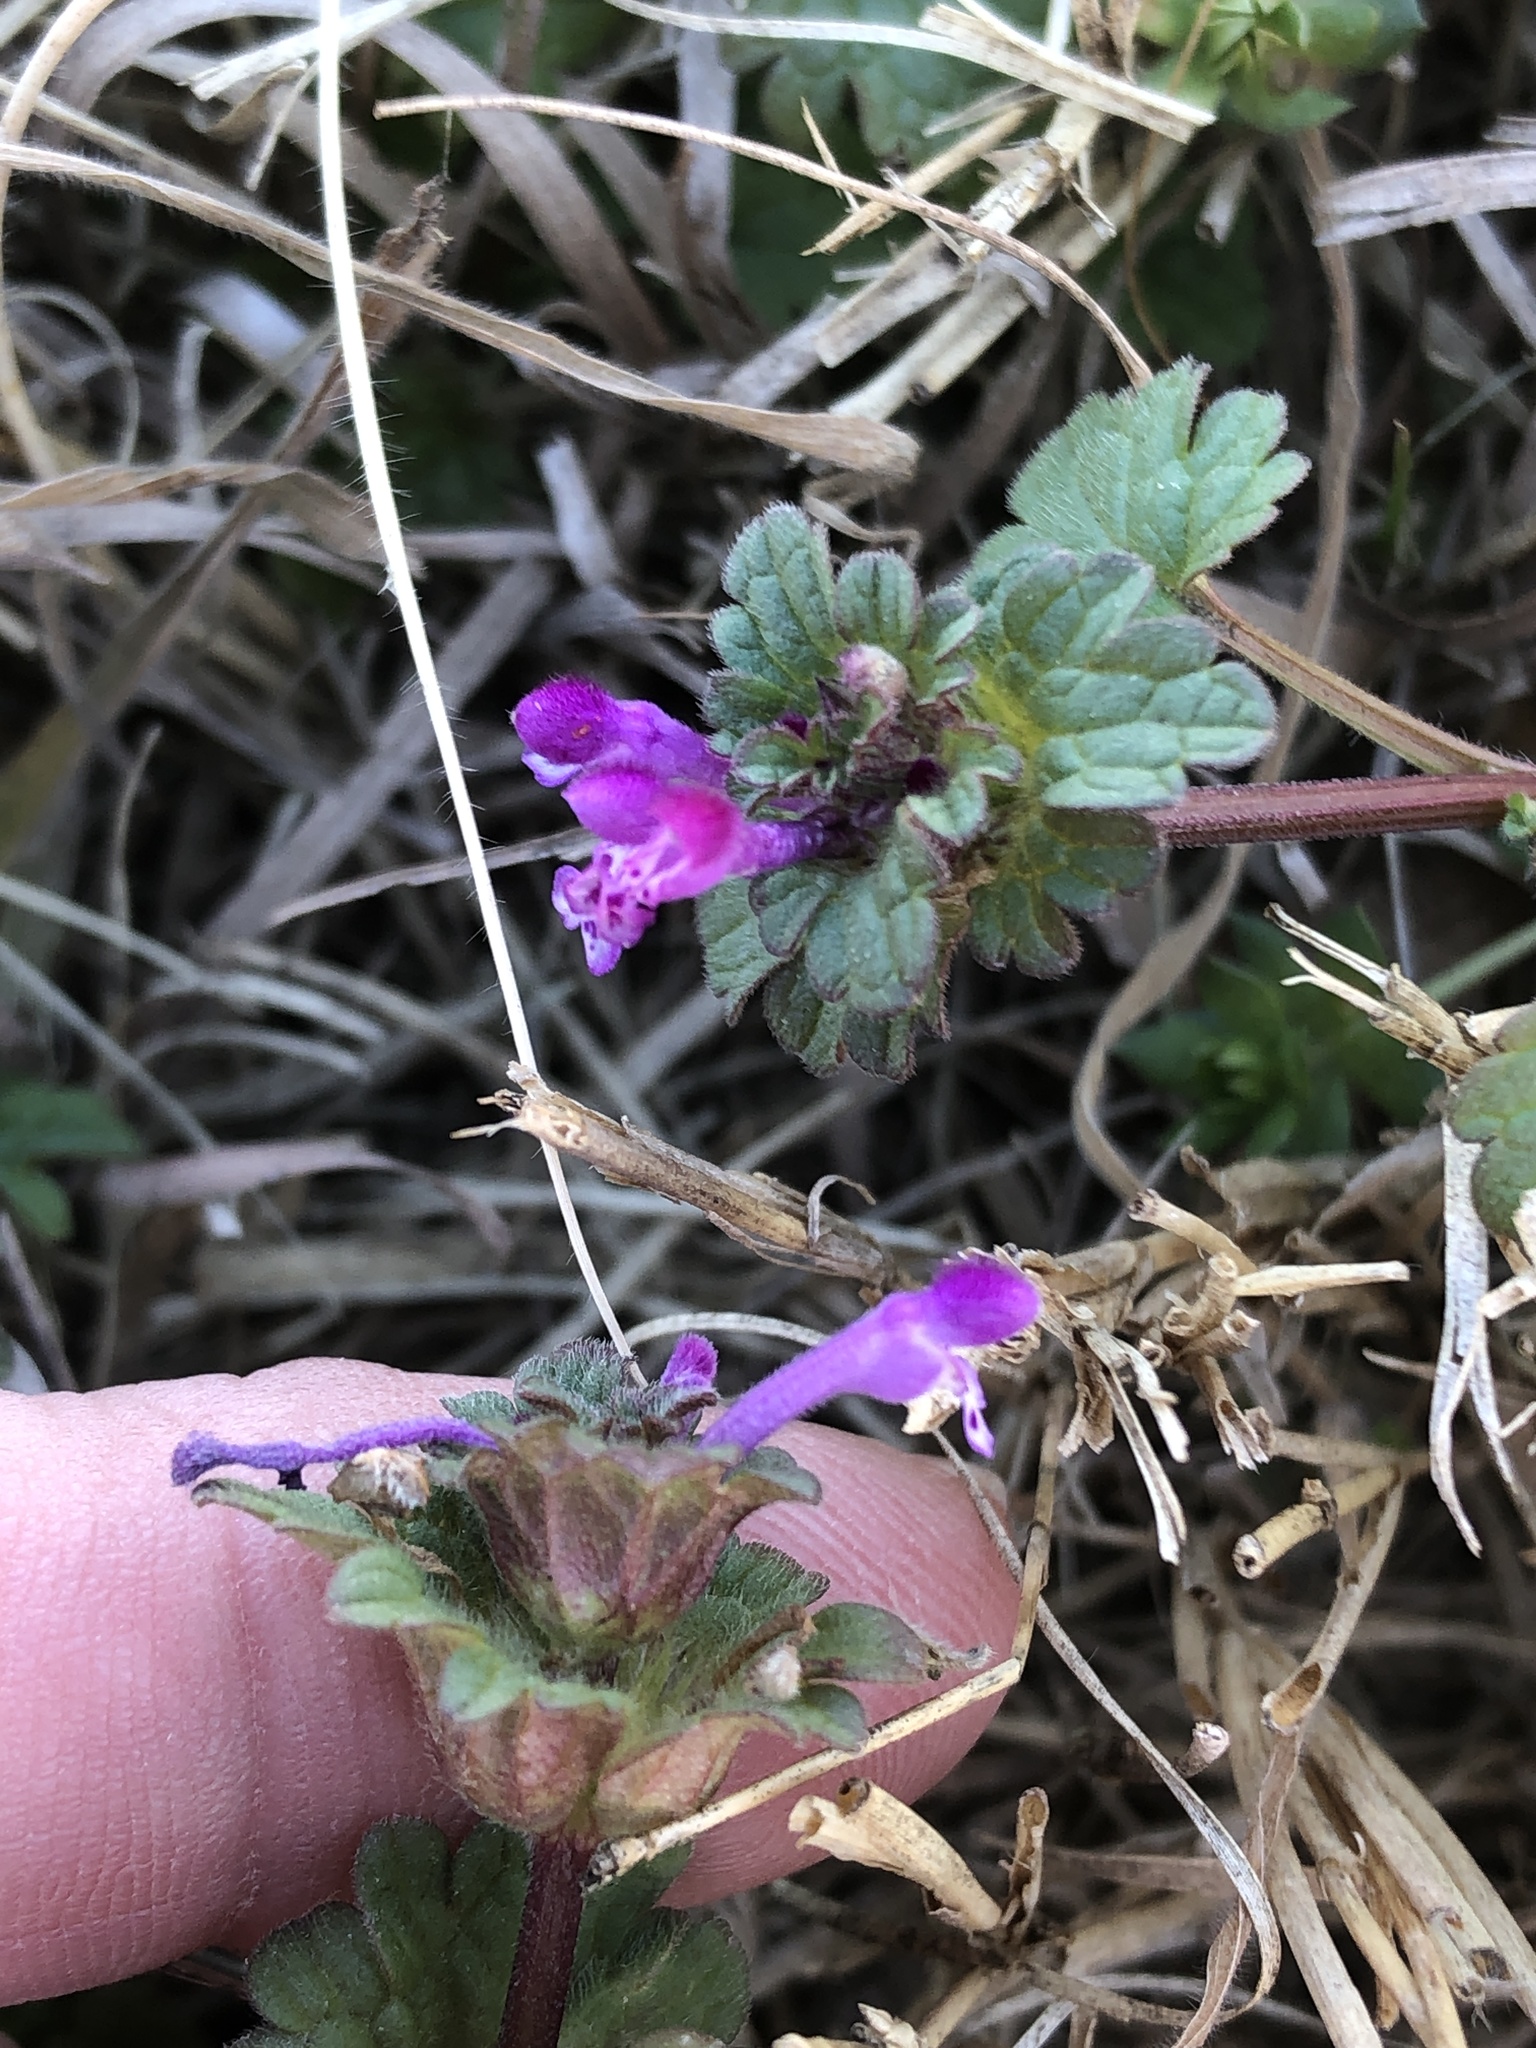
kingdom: Plantae
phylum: Tracheophyta
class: Magnoliopsida
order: Lamiales
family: Lamiaceae
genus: Lamium
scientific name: Lamium amplexicaule
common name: Henbit dead-nettle
